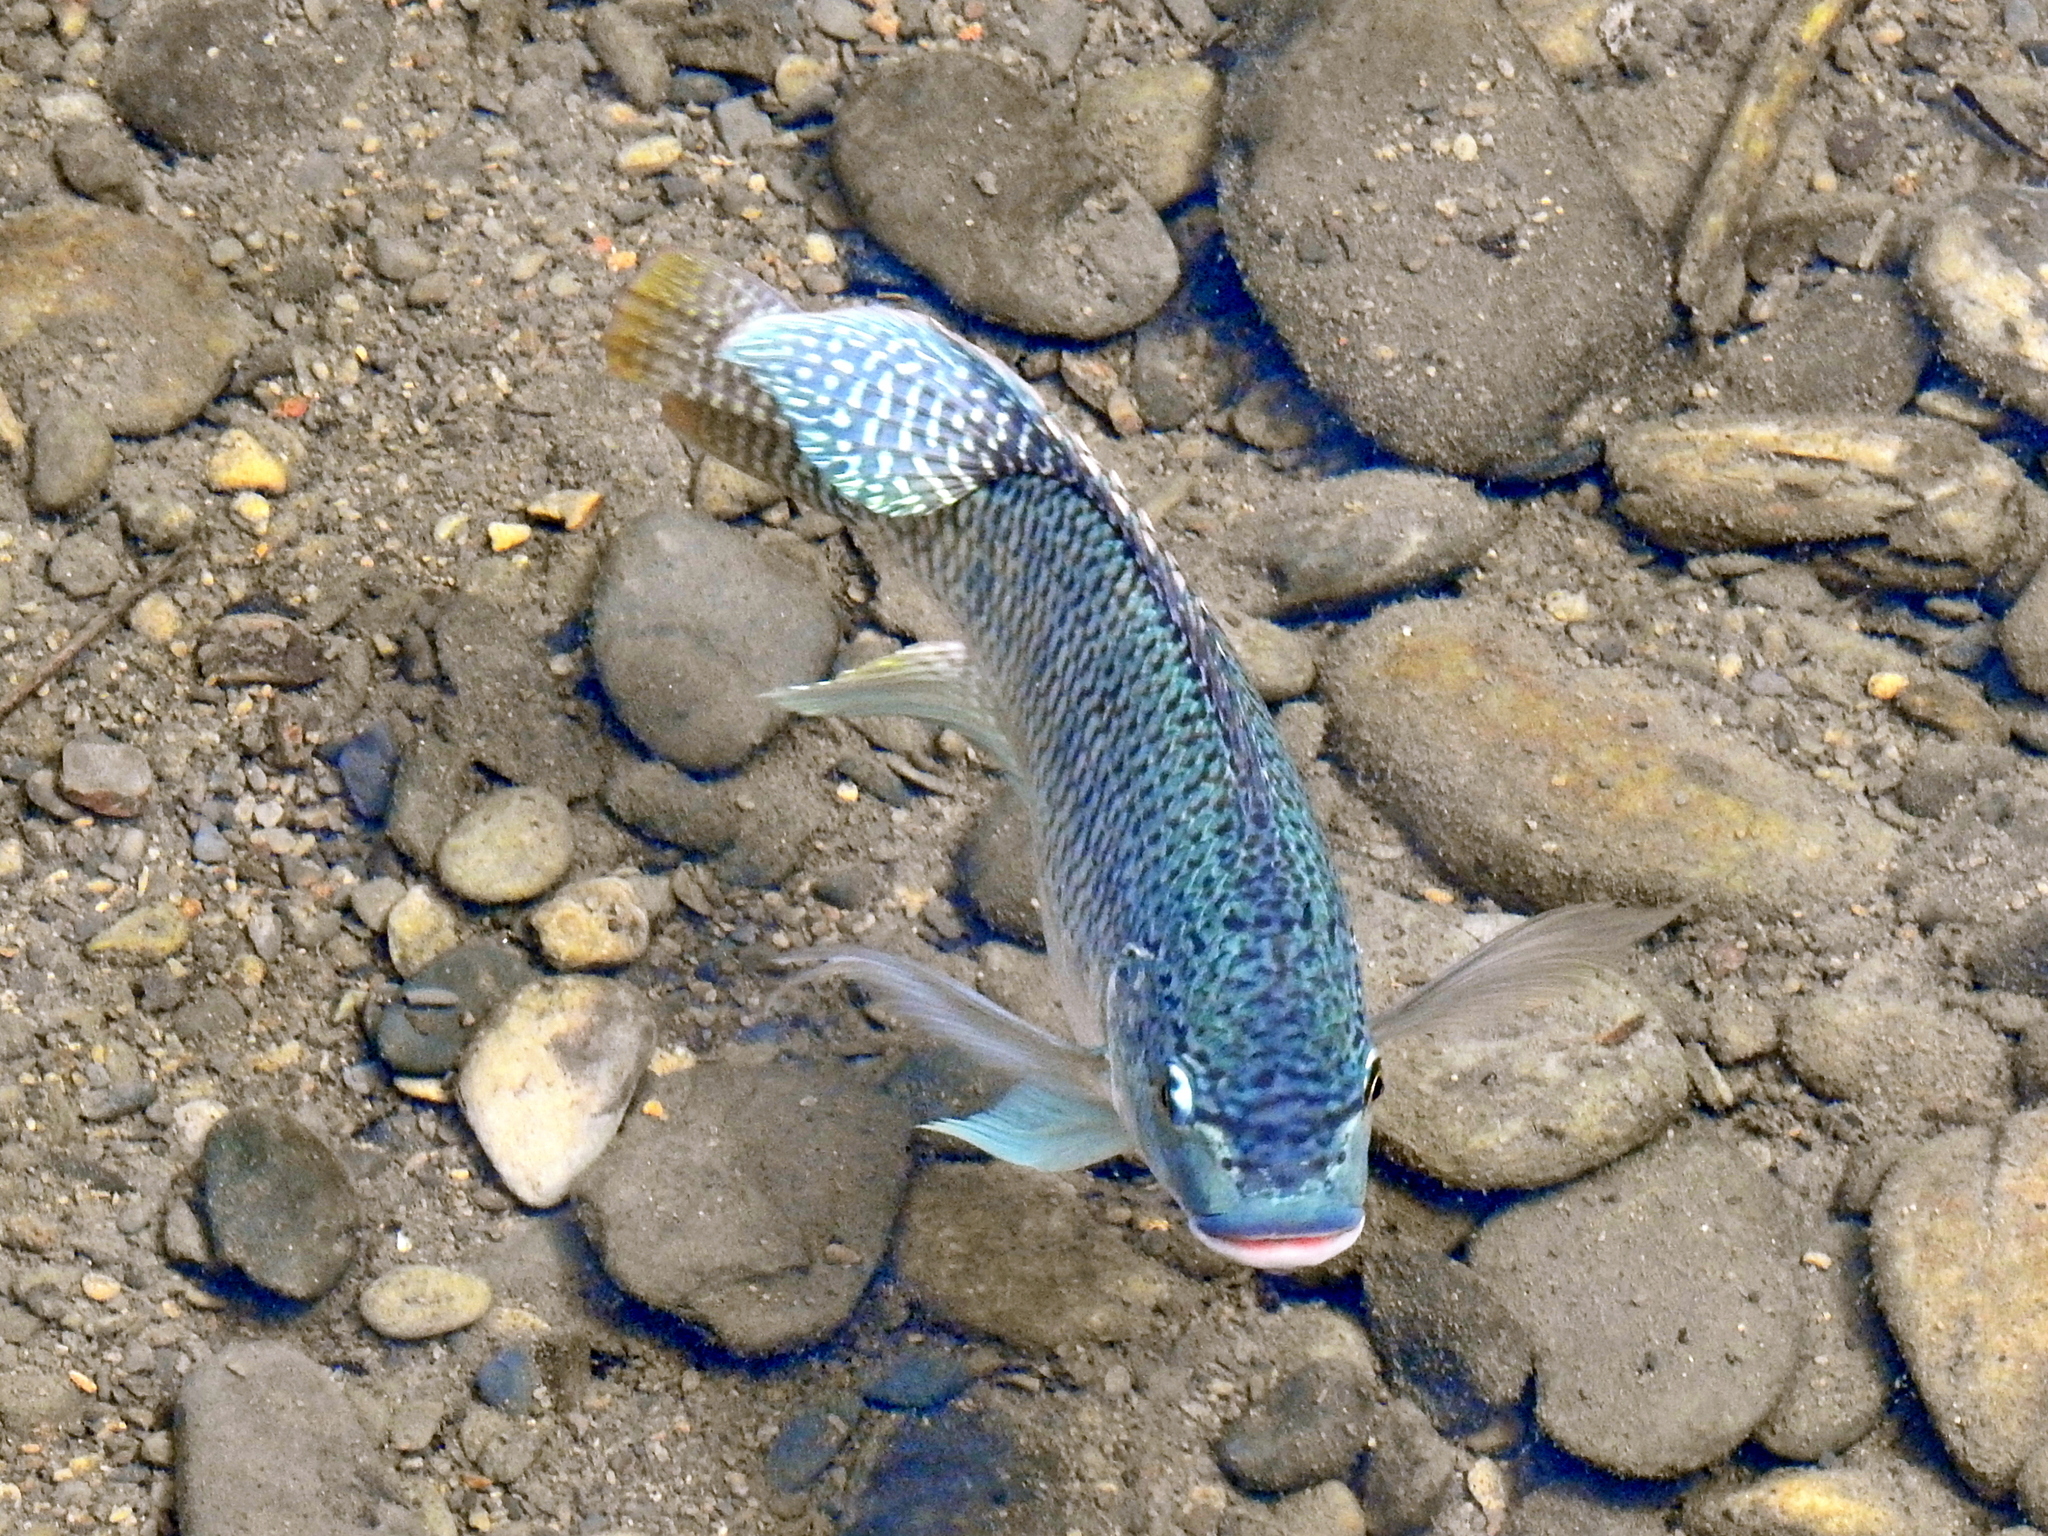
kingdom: Animalia
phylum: Chordata
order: Perciformes
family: Cichlidae
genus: Oreochromis
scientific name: Oreochromis aureus
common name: Blue tilapia
